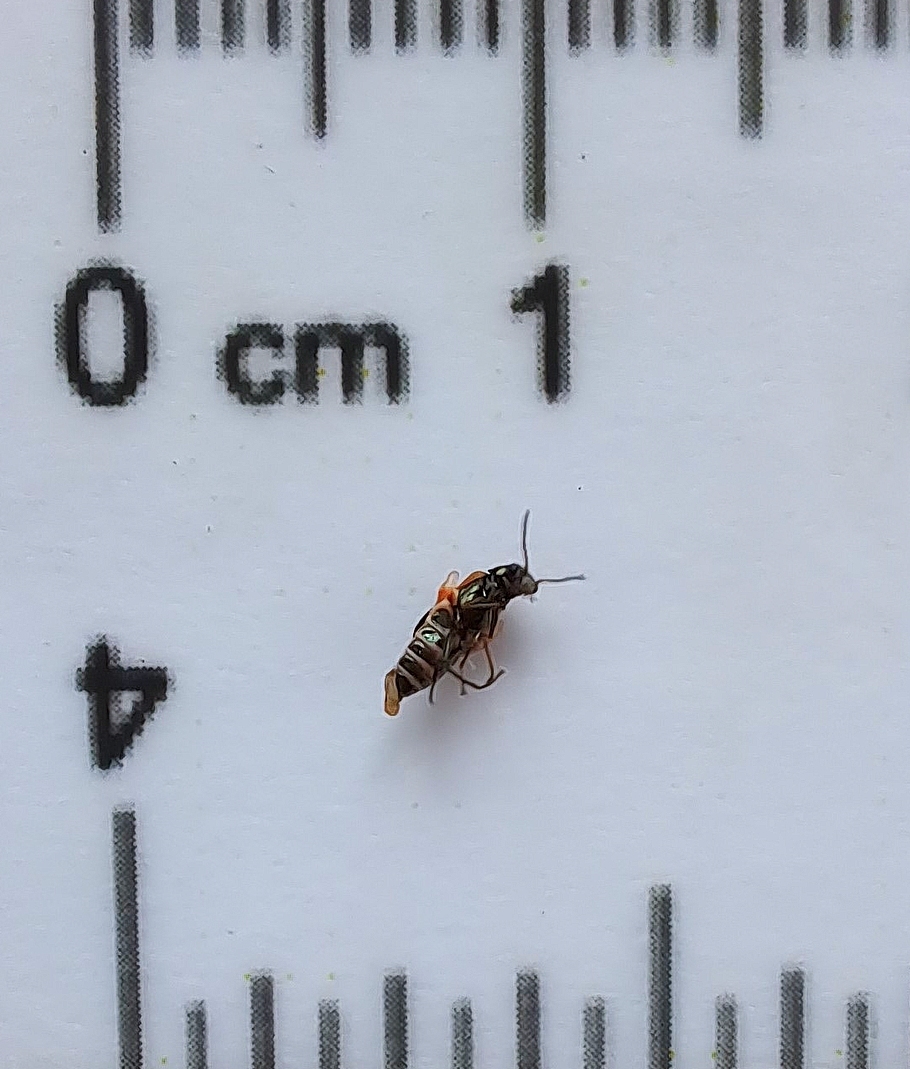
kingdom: Animalia
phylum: Arthropoda
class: Insecta
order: Coleoptera
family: Melyridae
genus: Anthocomus
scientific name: Anthocomus equestris
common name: Black-banded soft-winged flower beetle
